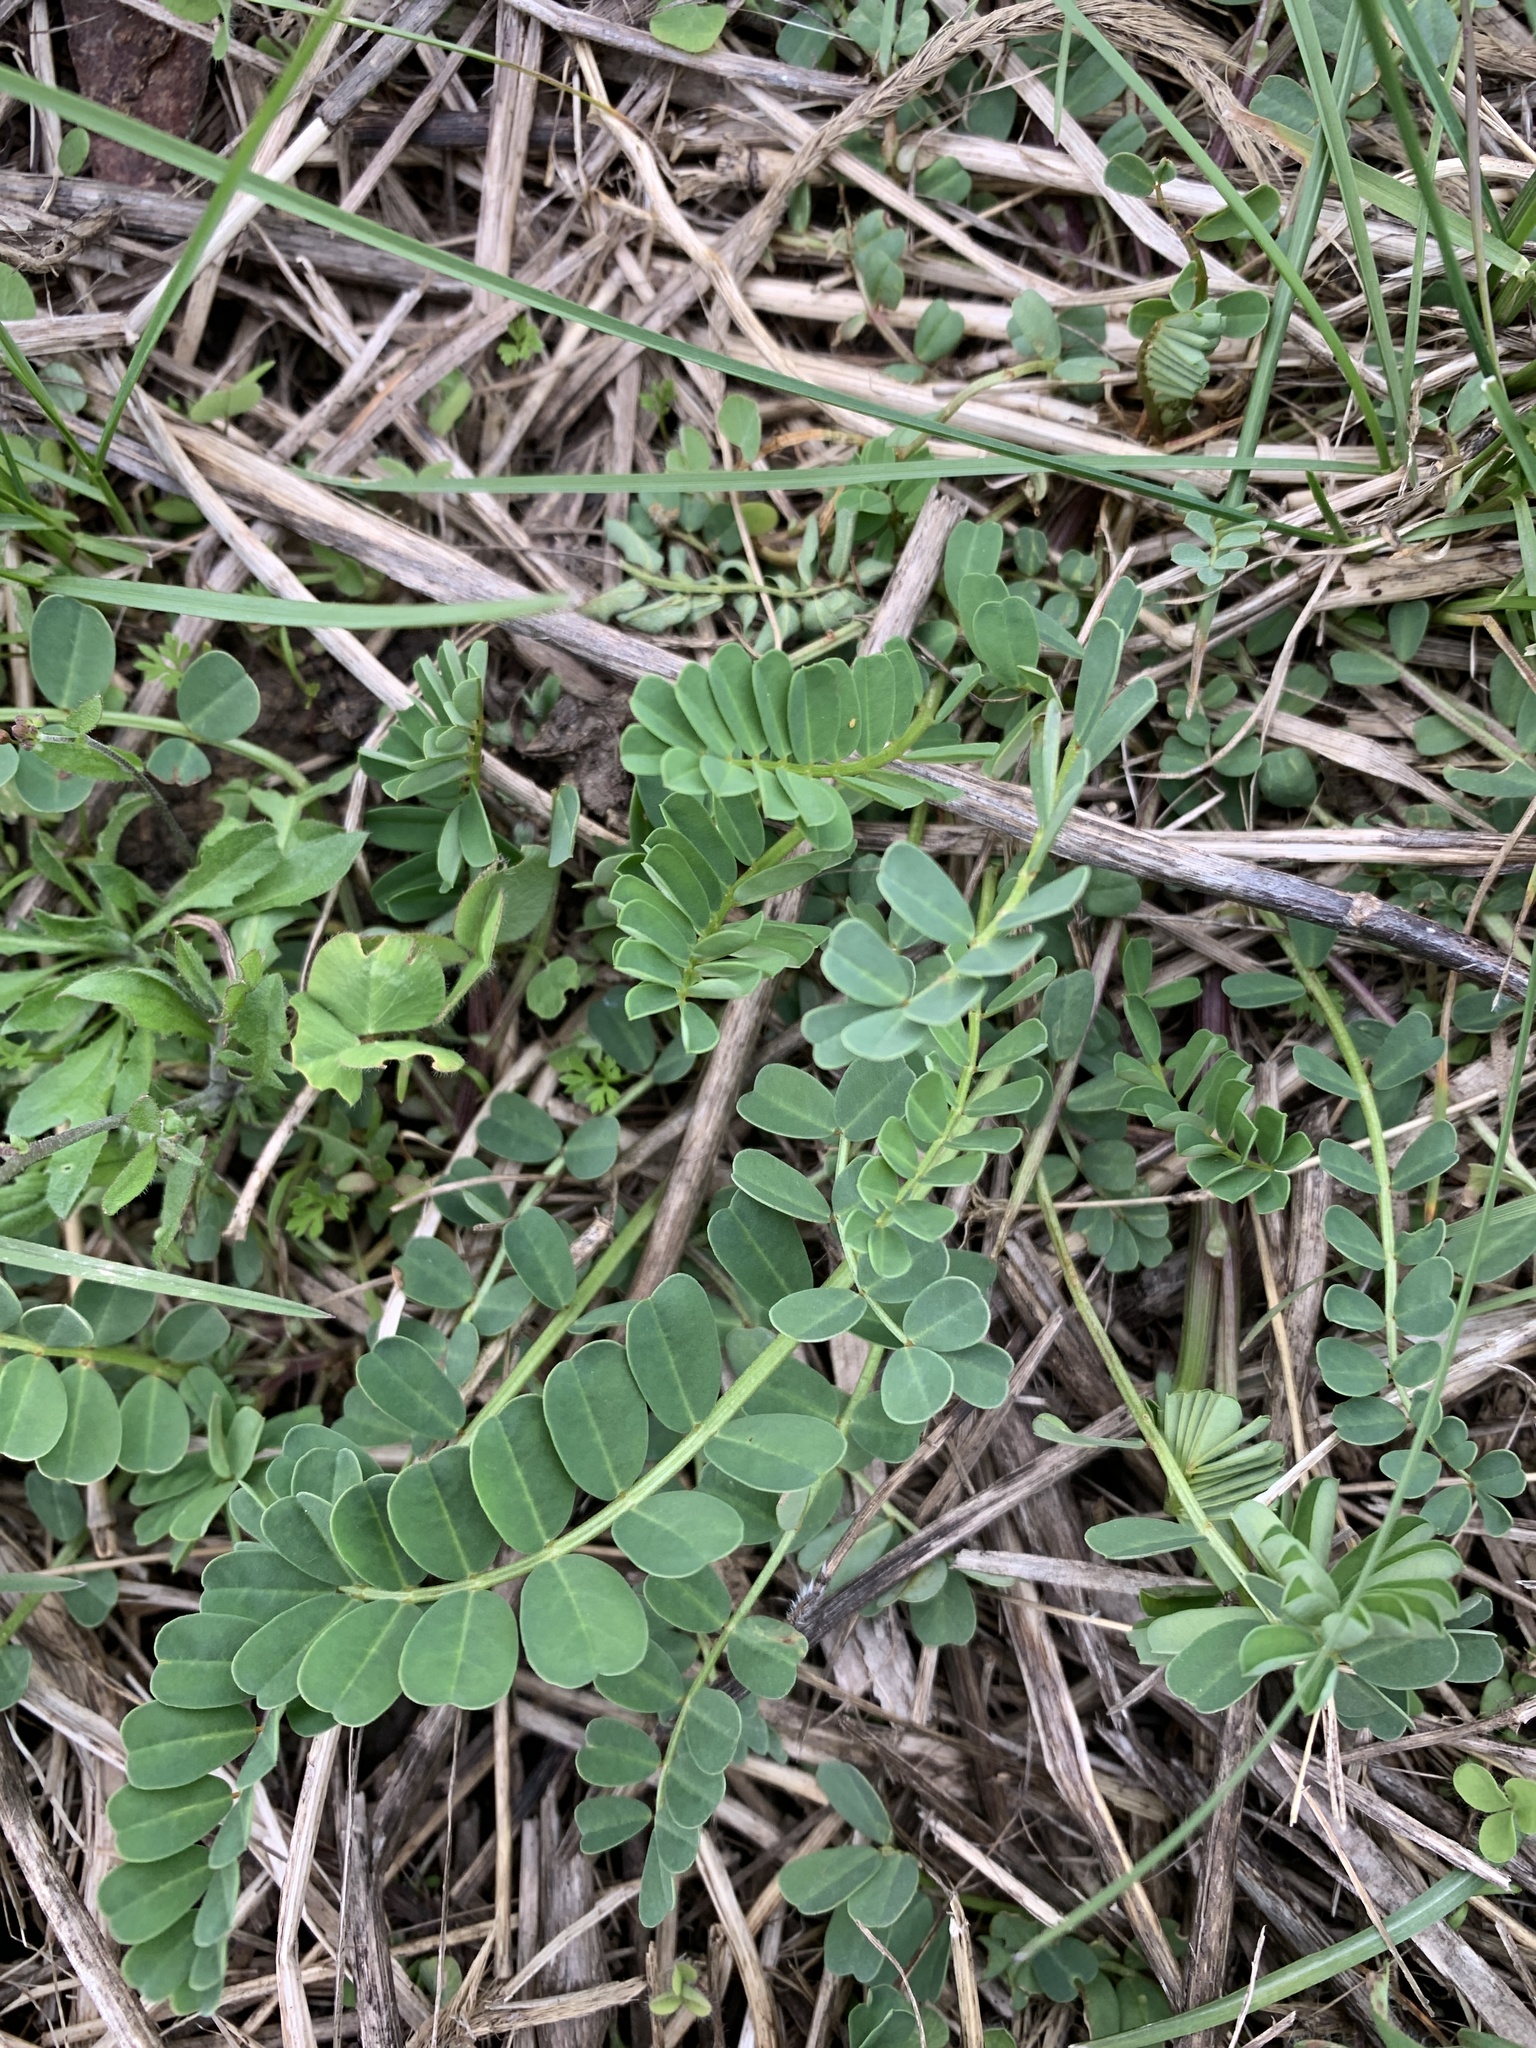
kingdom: Plantae
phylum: Tracheophyta
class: Magnoliopsida
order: Fabales
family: Fabaceae
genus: Coronilla
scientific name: Coronilla varia
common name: Crownvetch
